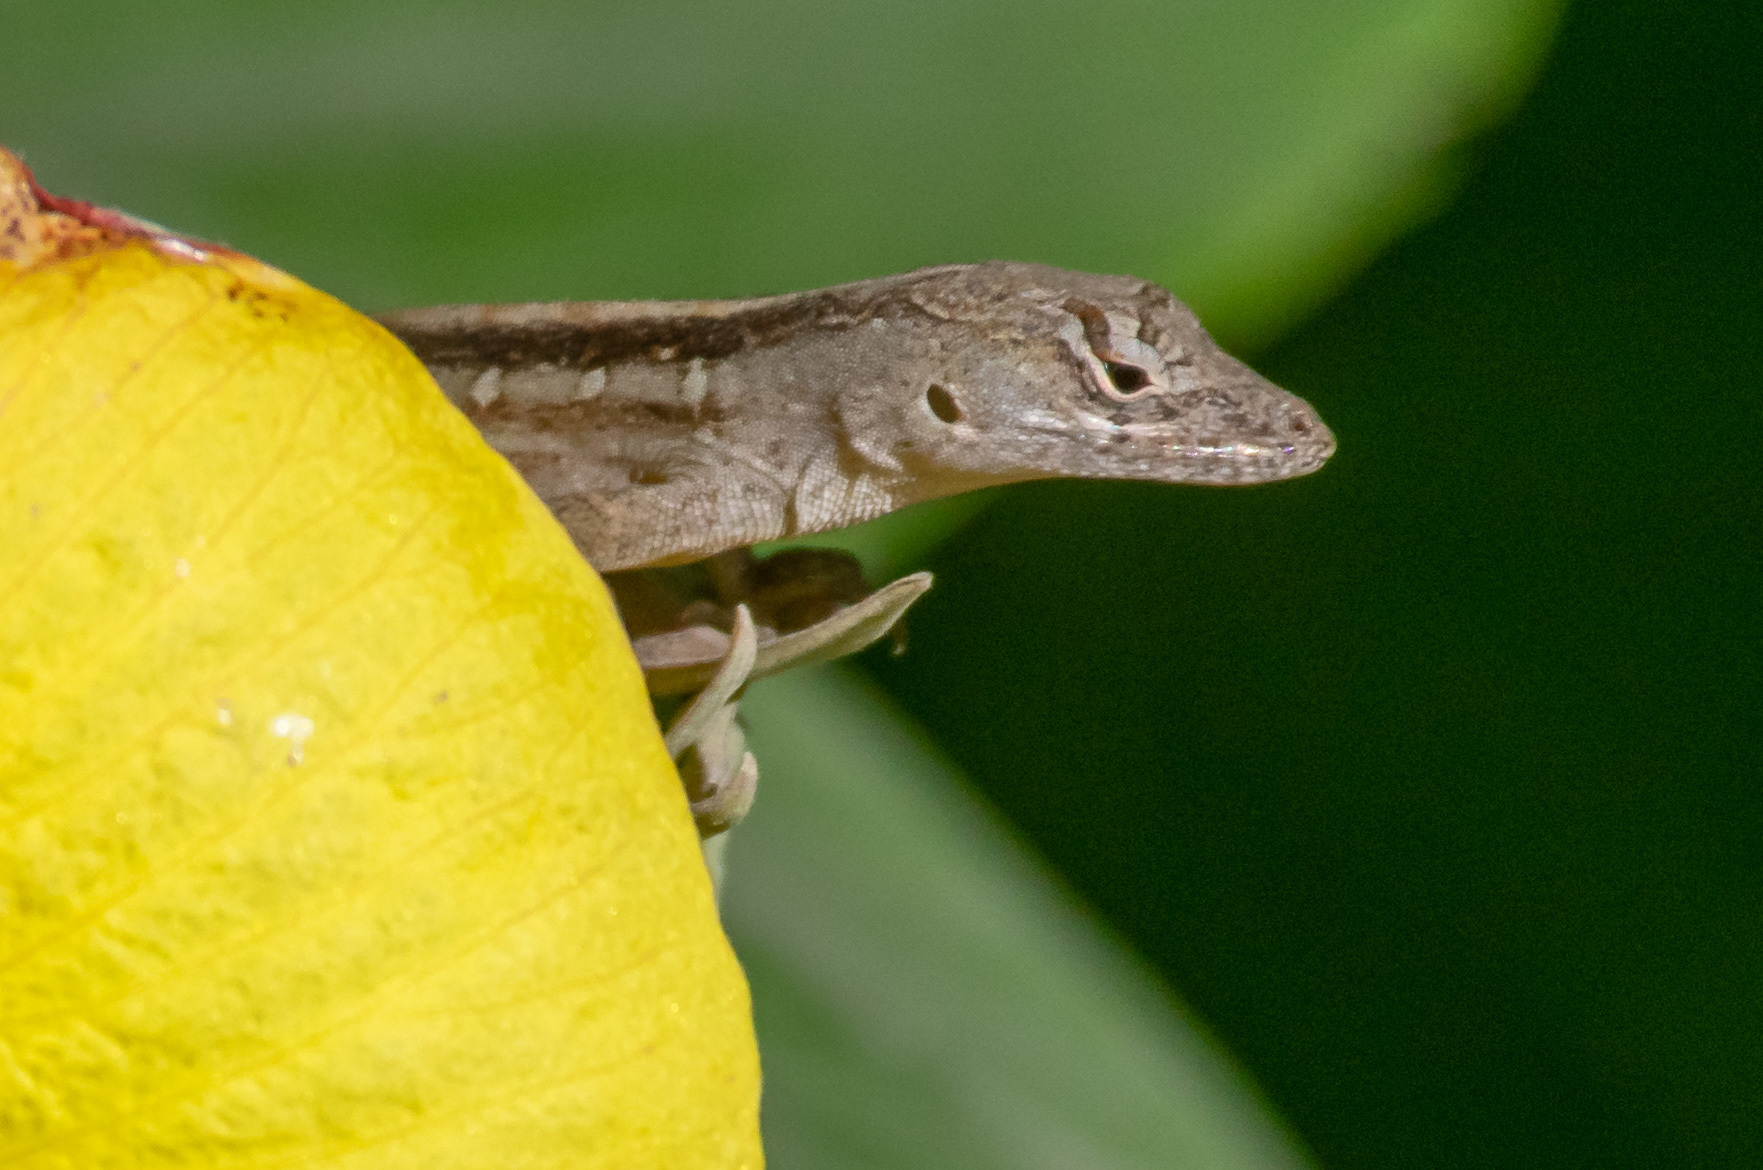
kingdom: Animalia
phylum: Chordata
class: Squamata
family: Dactyloidae
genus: Anolis
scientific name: Anolis sagrei
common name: Brown anole
